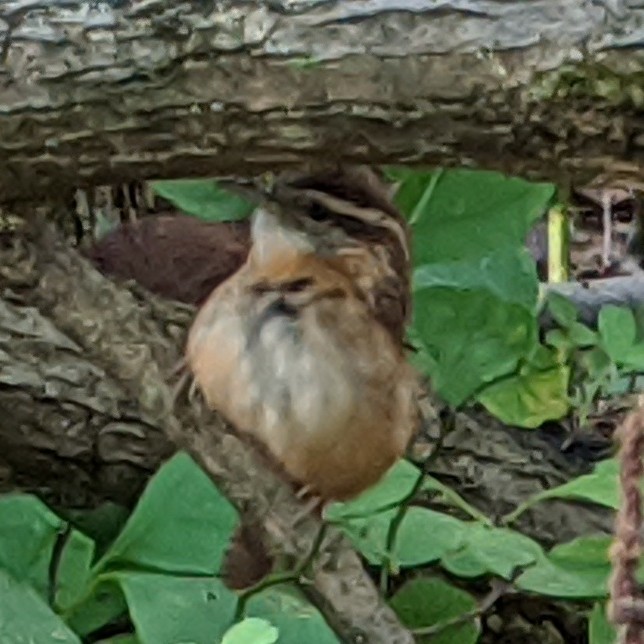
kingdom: Animalia
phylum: Chordata
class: Aves
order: Passeriformes
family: Troglodytidae
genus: Thryothorus
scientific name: Thryothorus ludovicianus
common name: Carolina wren
